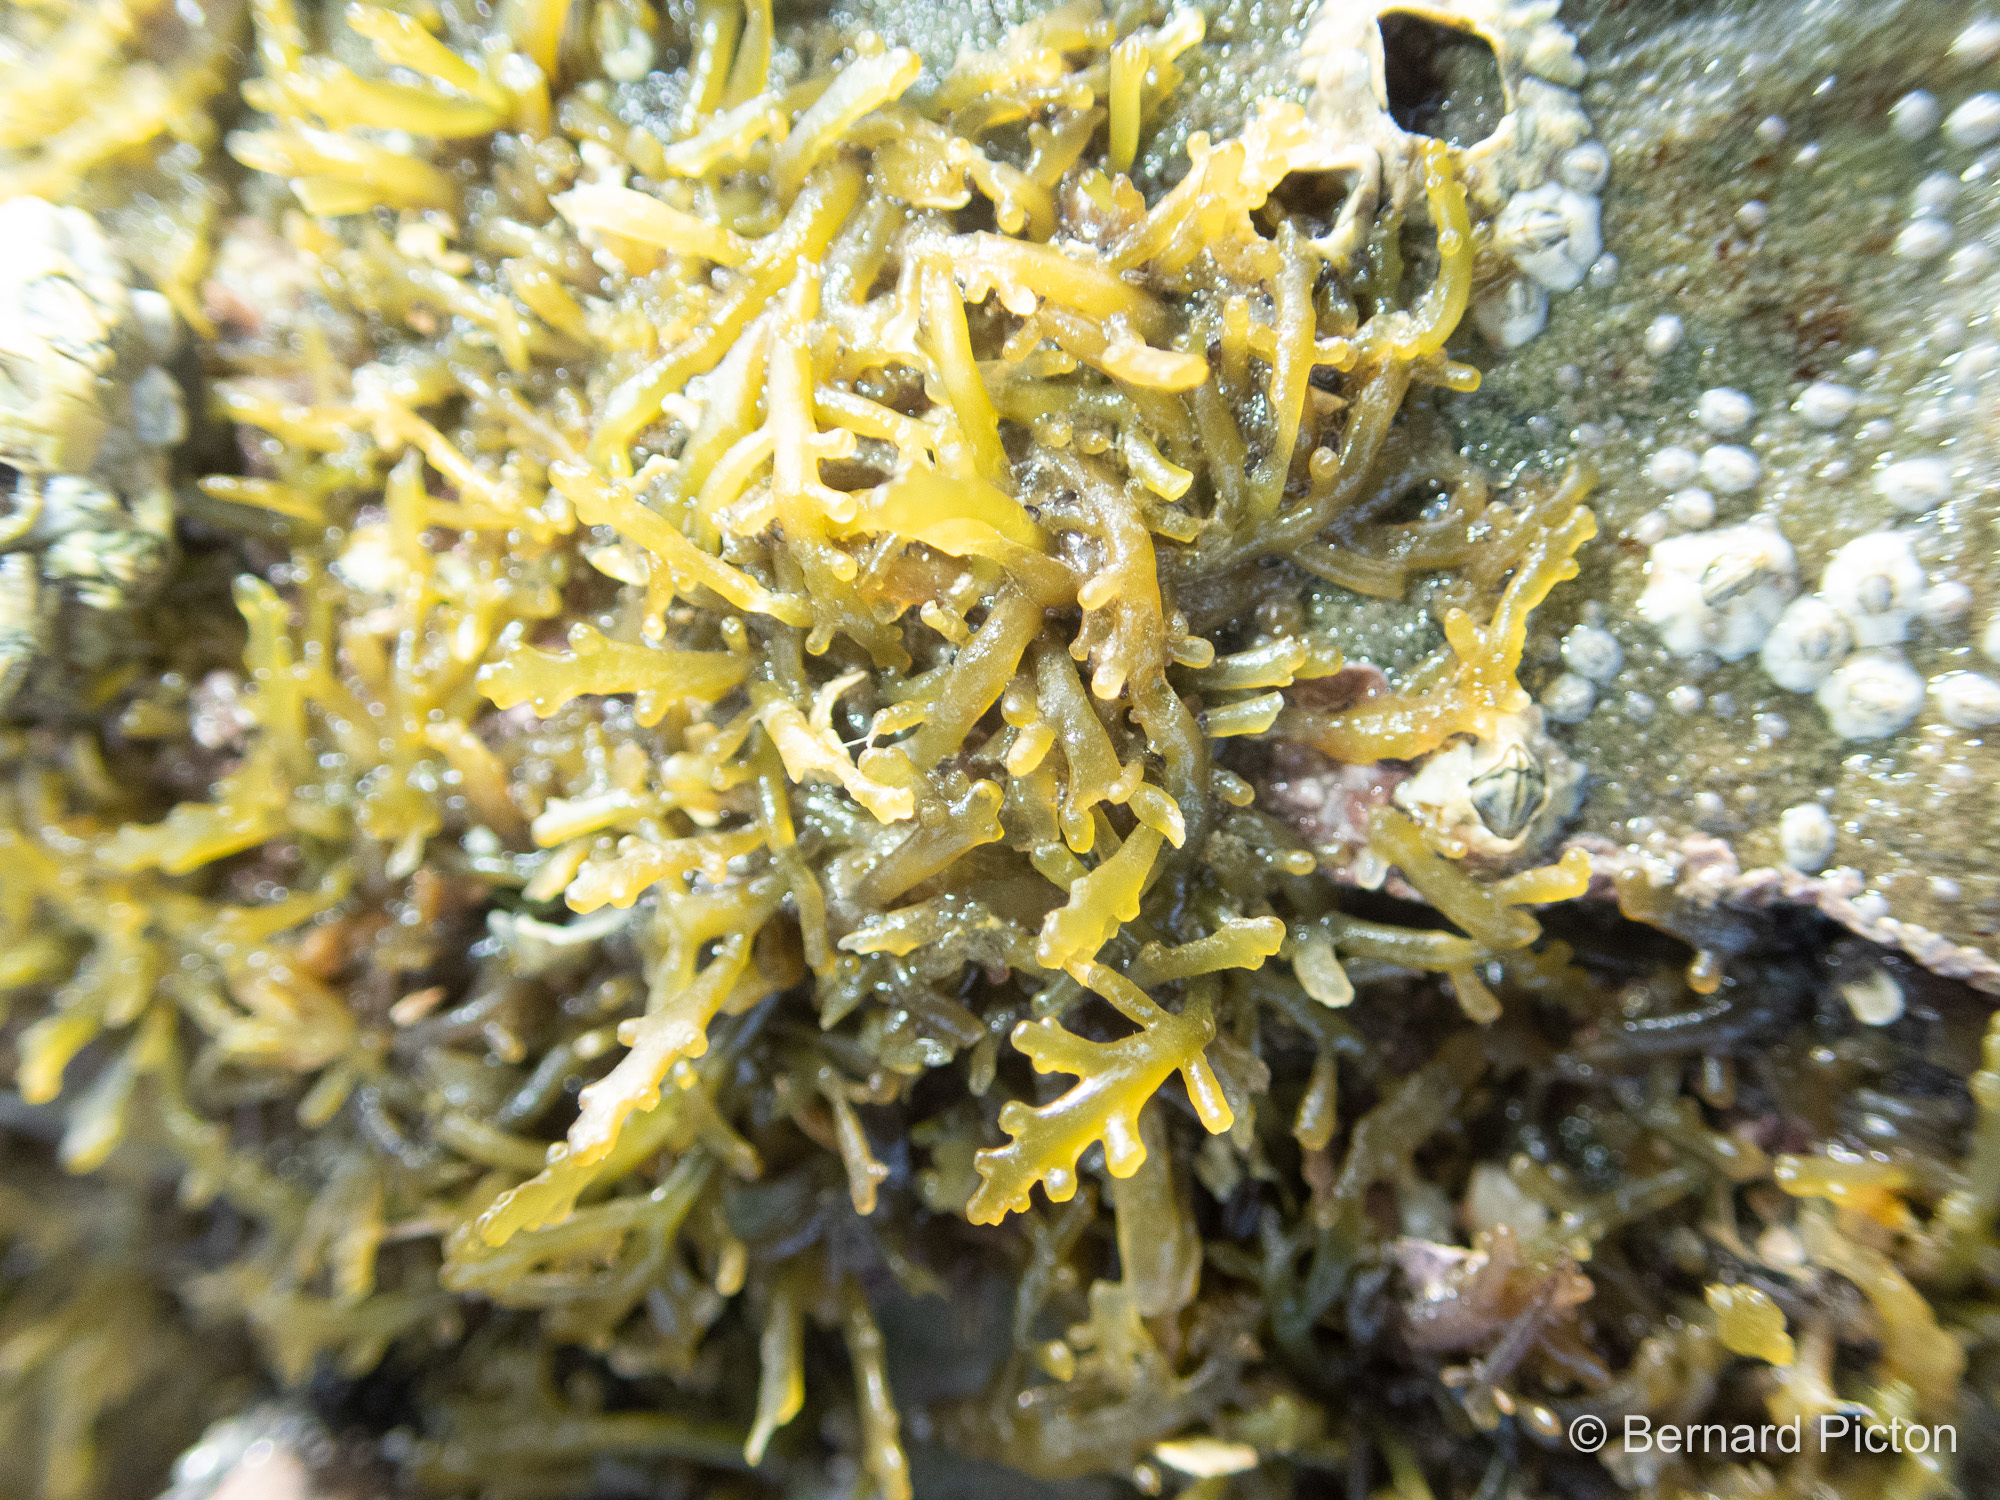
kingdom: Plantae
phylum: Rhodophyta
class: Florideophyceae
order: Ceramiales
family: Rhodomelaceae
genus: Osmundea
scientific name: Osmundea hybrida
